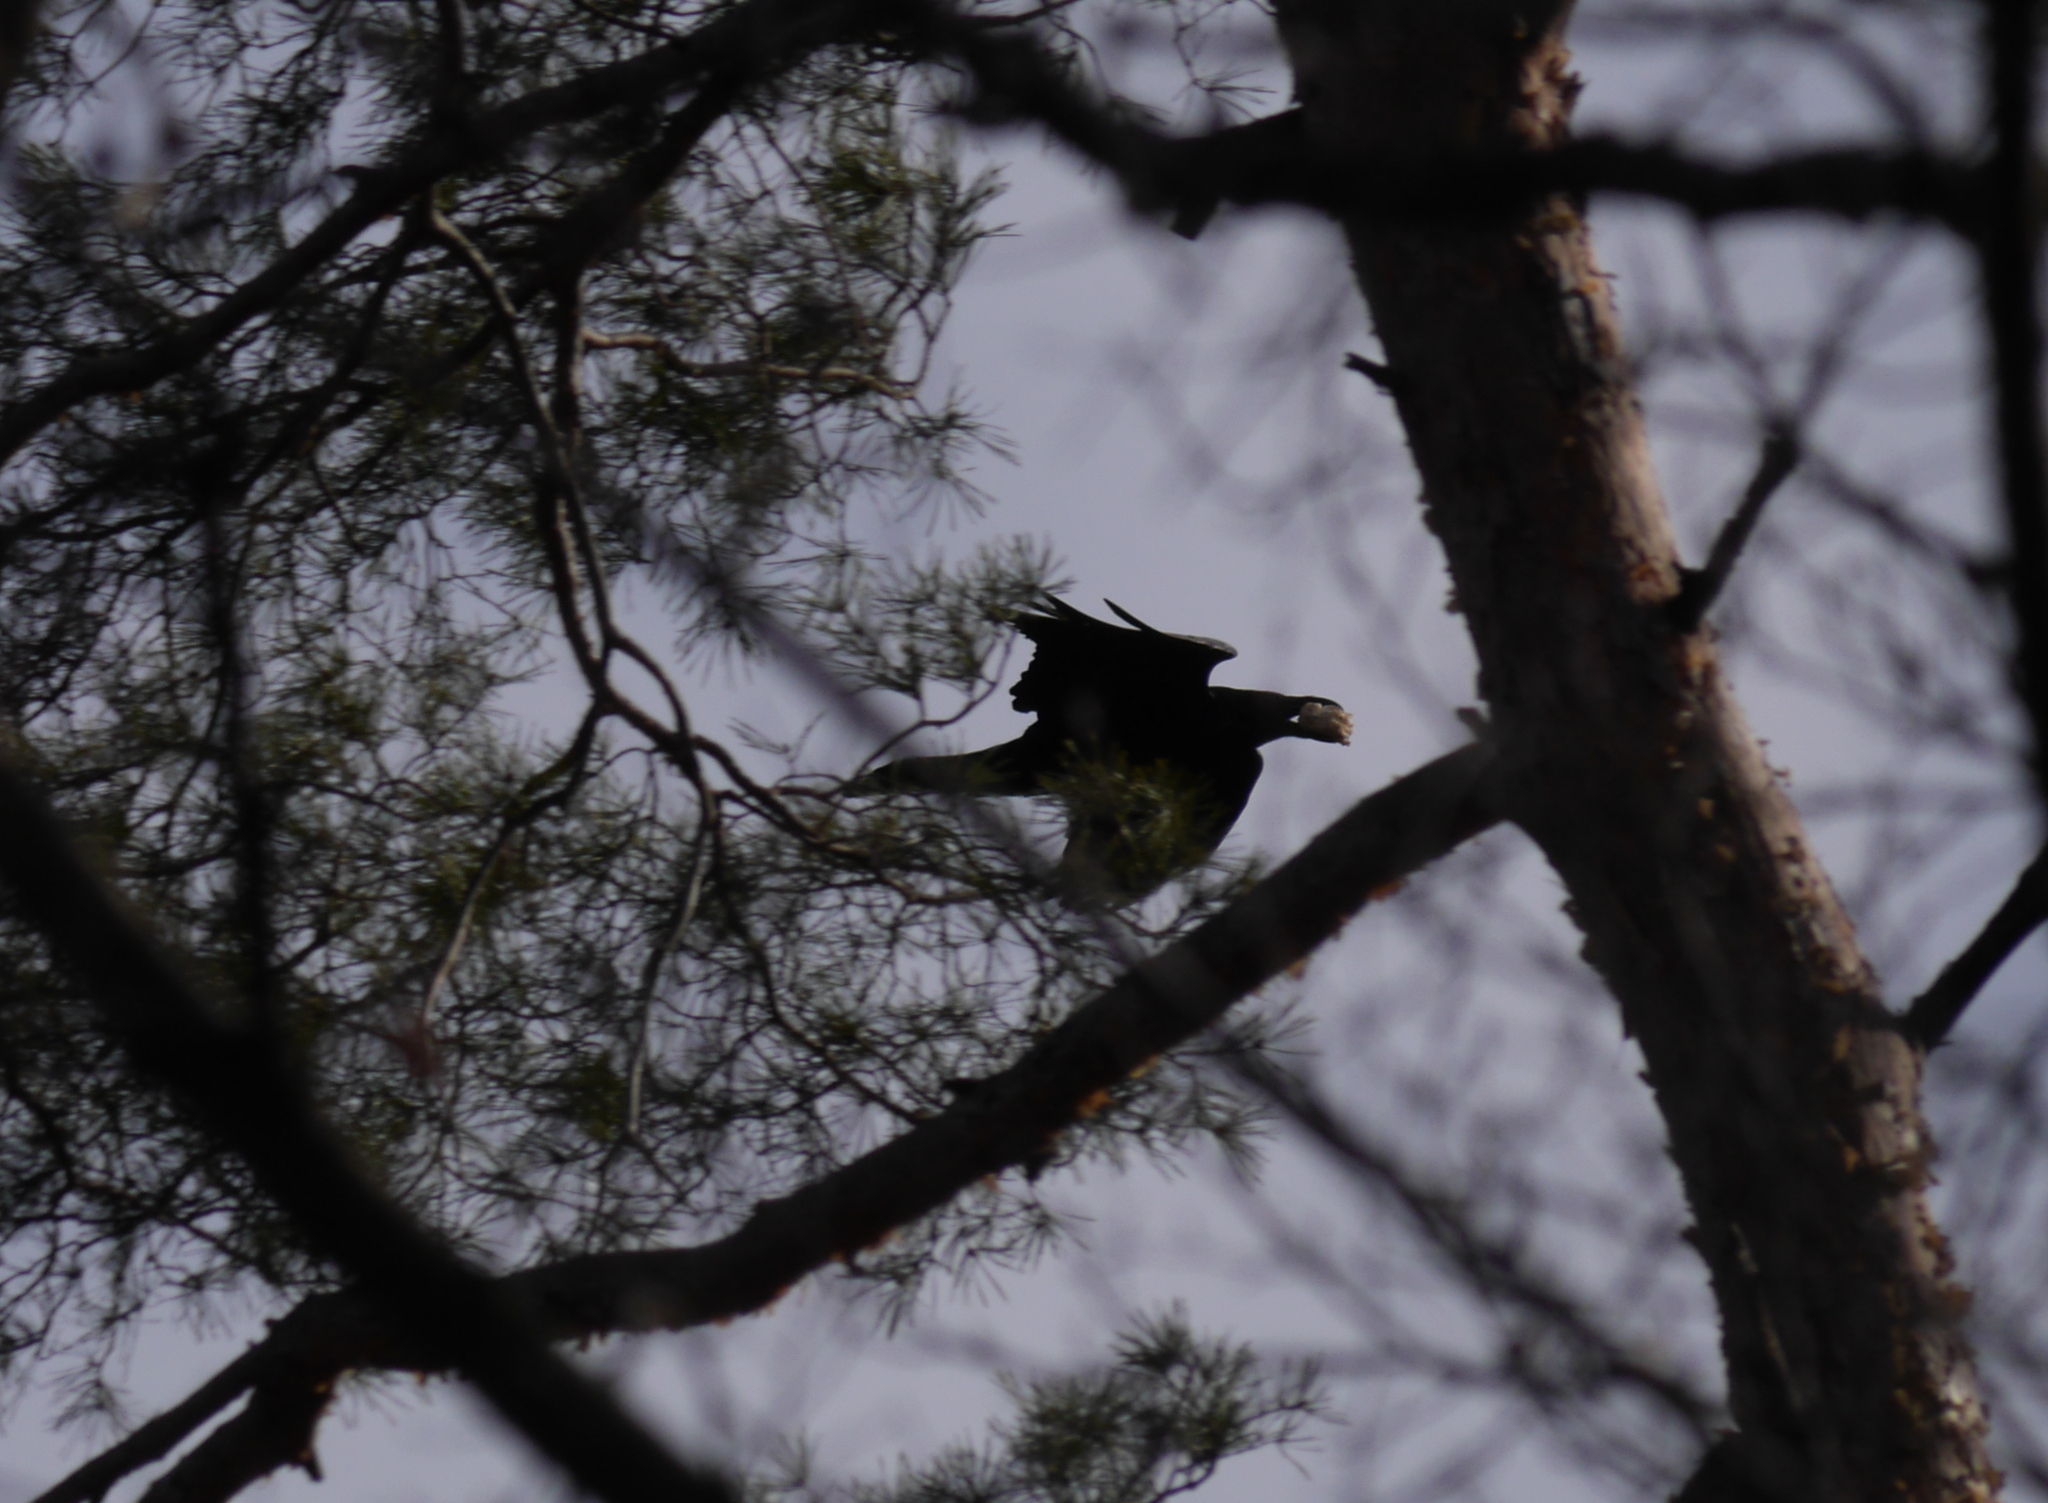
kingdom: Animalia
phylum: Chordata
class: Aves
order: Passeriformes
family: Corvidae
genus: Corvus
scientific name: Corvus corax
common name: Common raven
